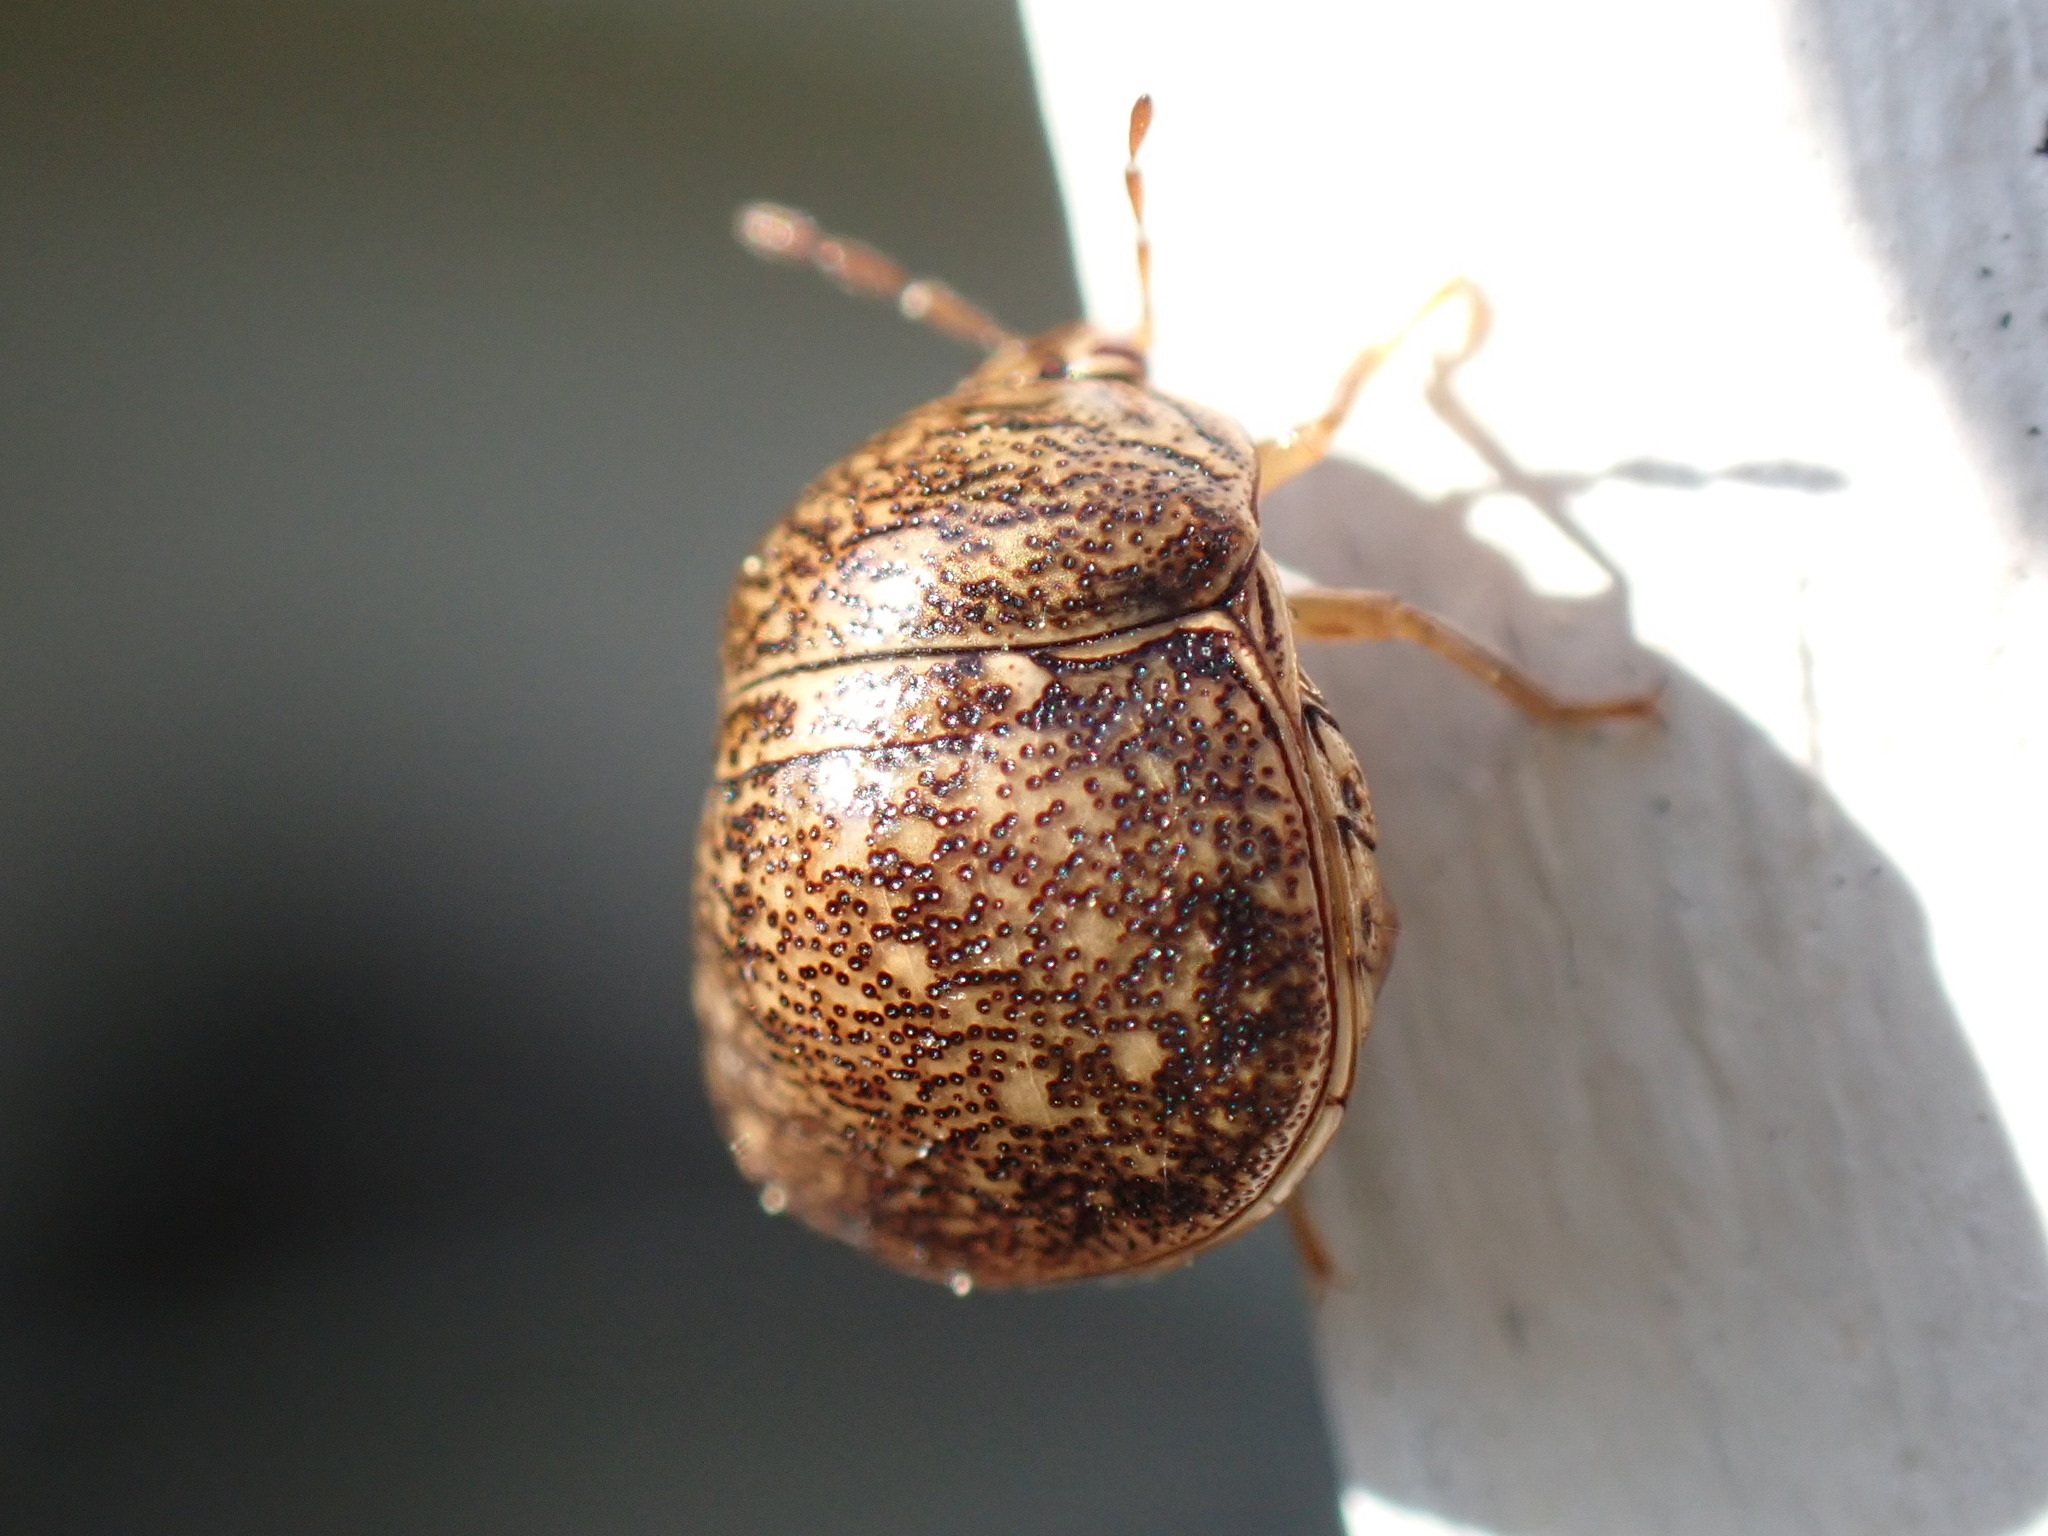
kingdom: Animalia
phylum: Arthropoda
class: Insecta
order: Hemiptera
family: Plataspidae
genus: Megacopta
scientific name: Megacopta cribraria
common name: Bean plataspid
